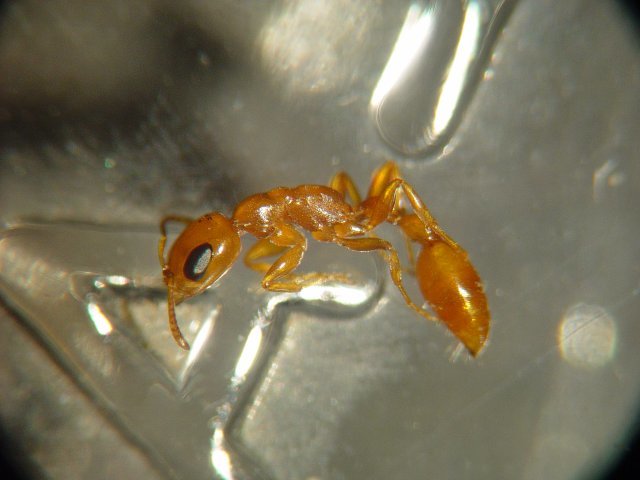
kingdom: Animalia
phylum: Arthropoda
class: Insecta
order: Hymenoptera
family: Formicidae
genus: Pseudomyrmex
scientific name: Pseudomyrmex pallidus
